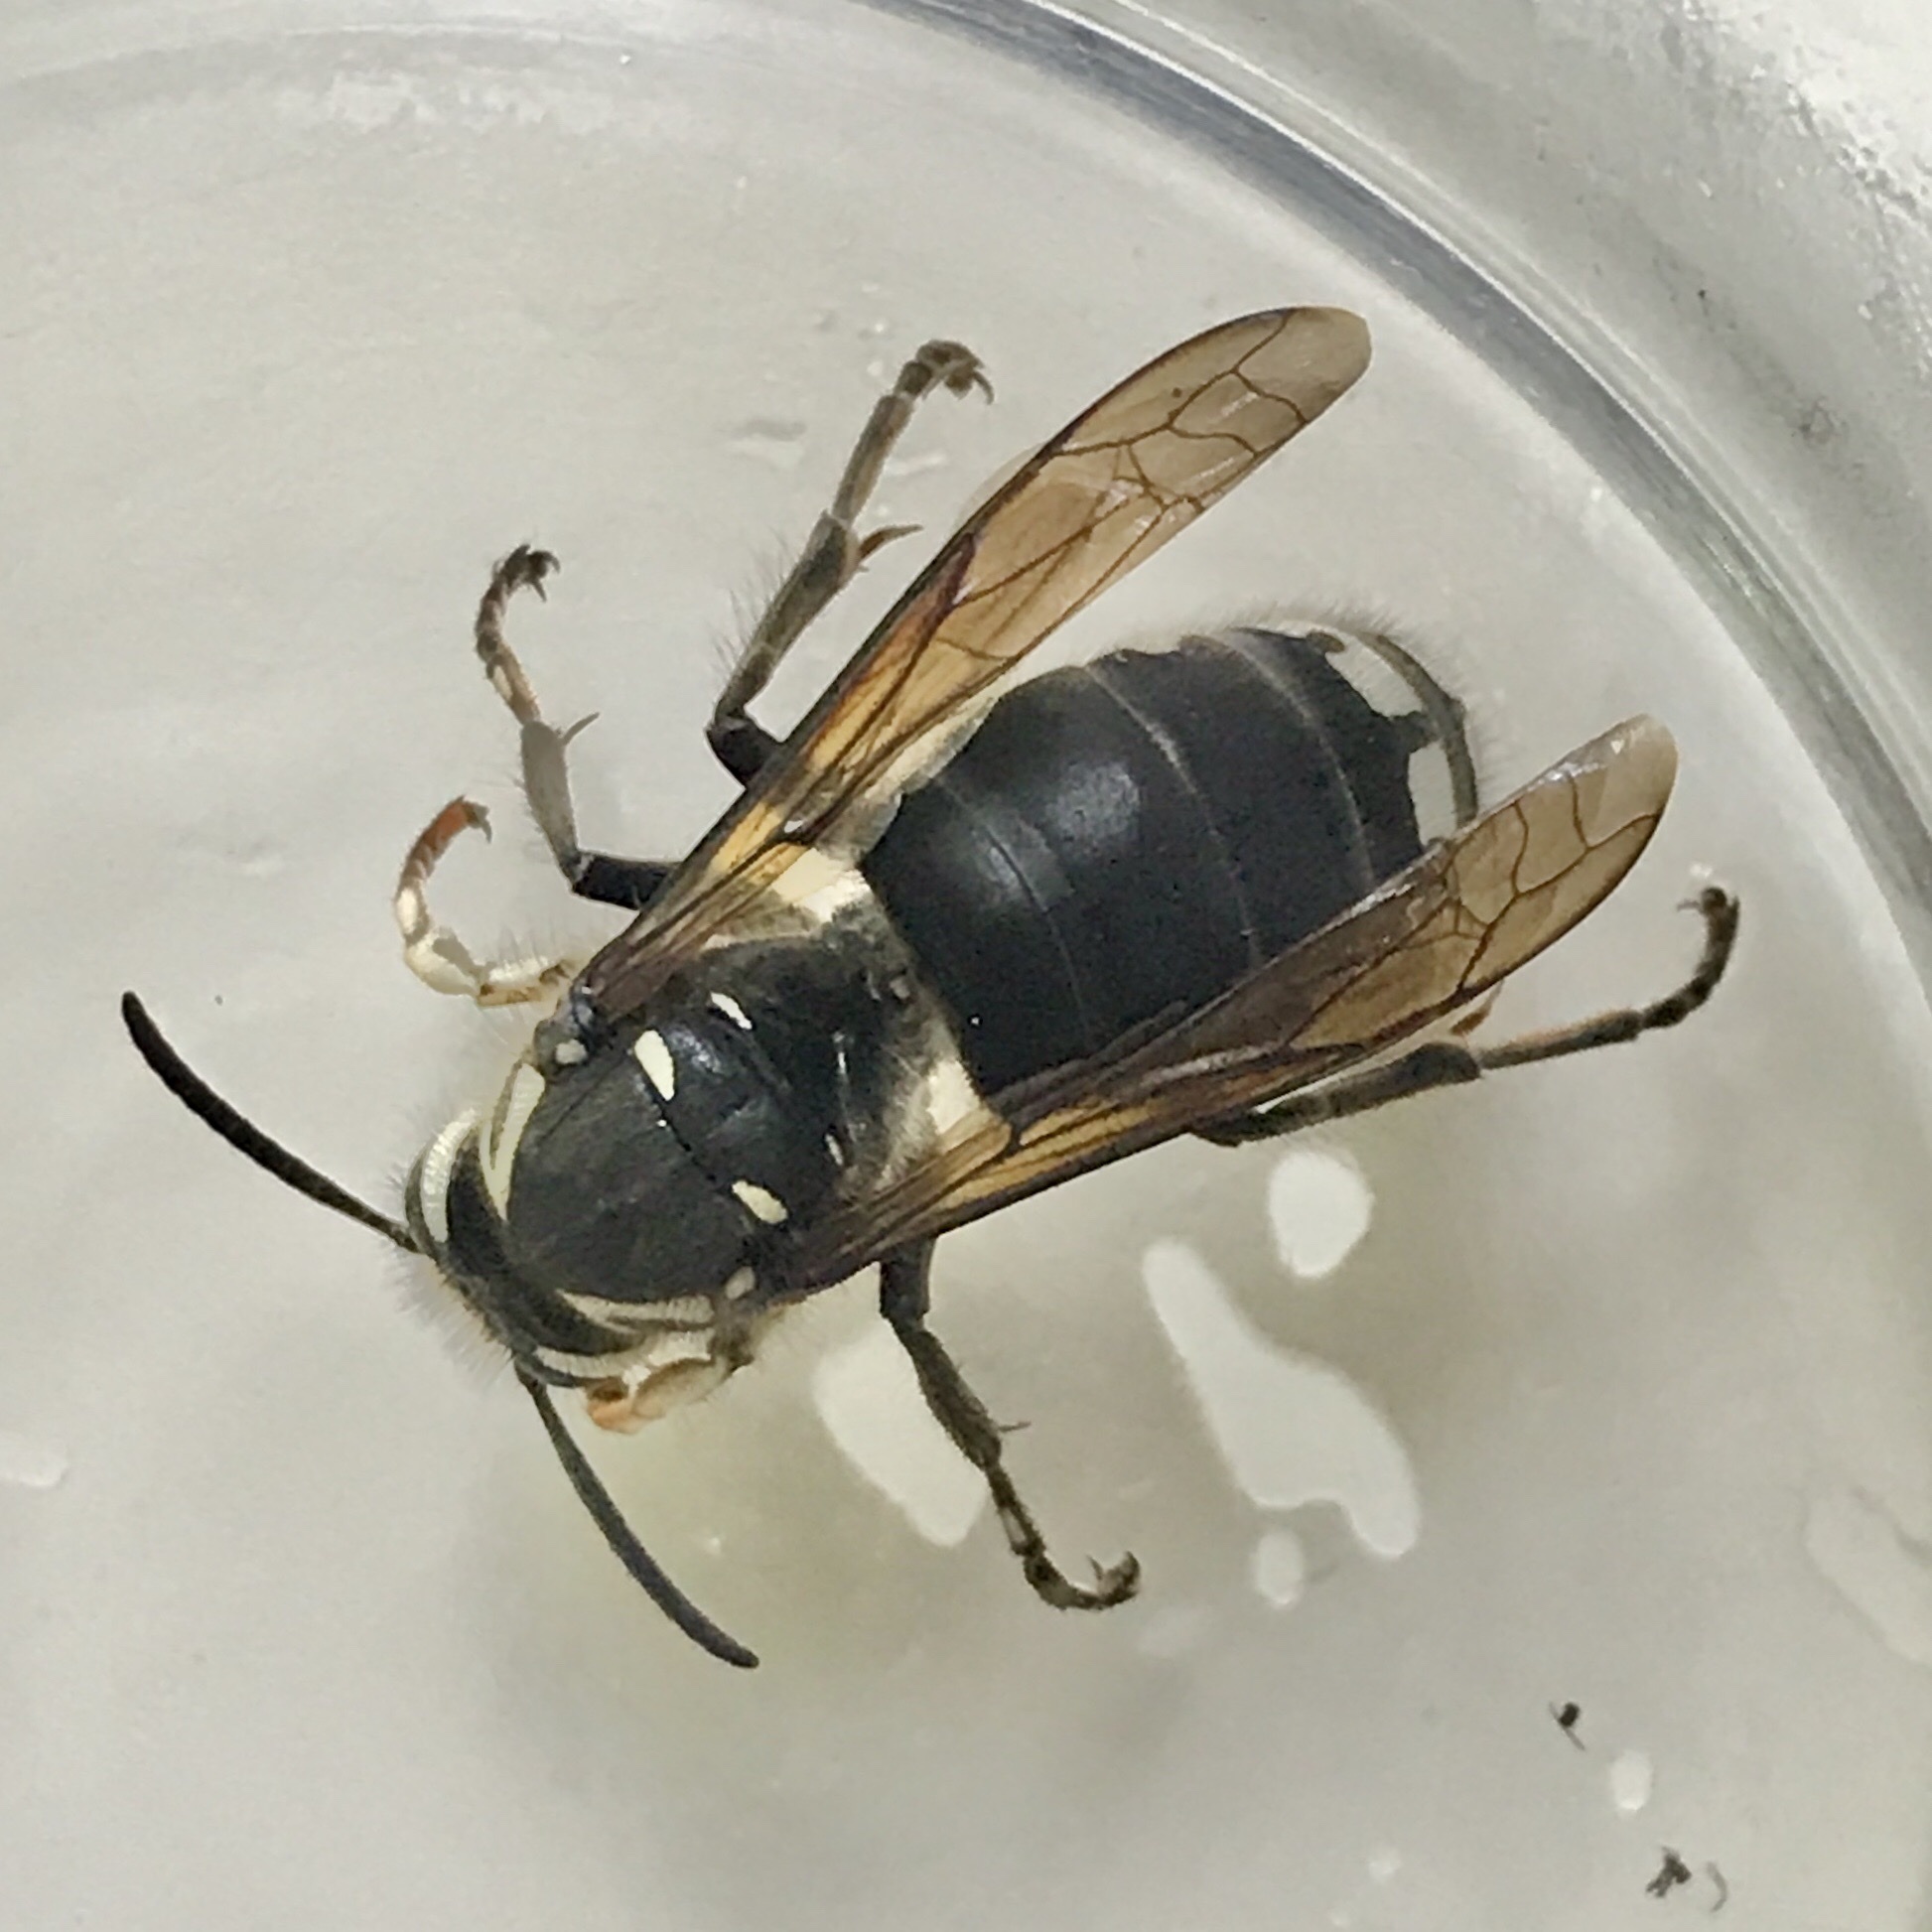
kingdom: Animalia
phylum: Arthropoda
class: Insecta
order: Hymenoptera
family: Vespidae
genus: Dolichovespula
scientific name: Dolichovespula maculata
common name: Bald-faced hornet
